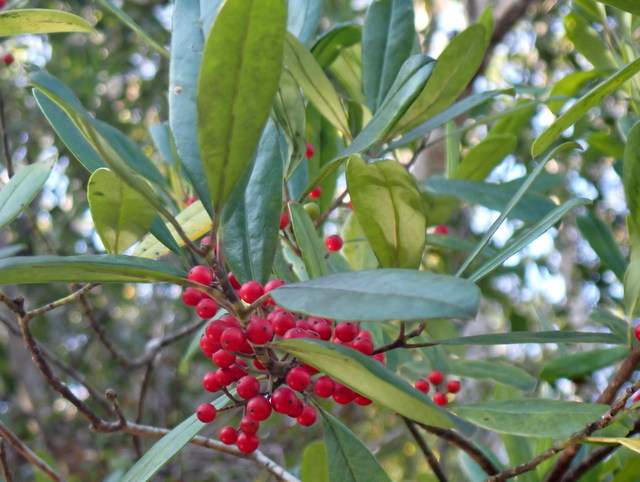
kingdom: Plantae
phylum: Tracheophyta
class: Magnoliopsida
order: Aquifoliales
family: Aquifoliaceae
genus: Ilex
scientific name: Ilex cassine
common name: Dahoon
